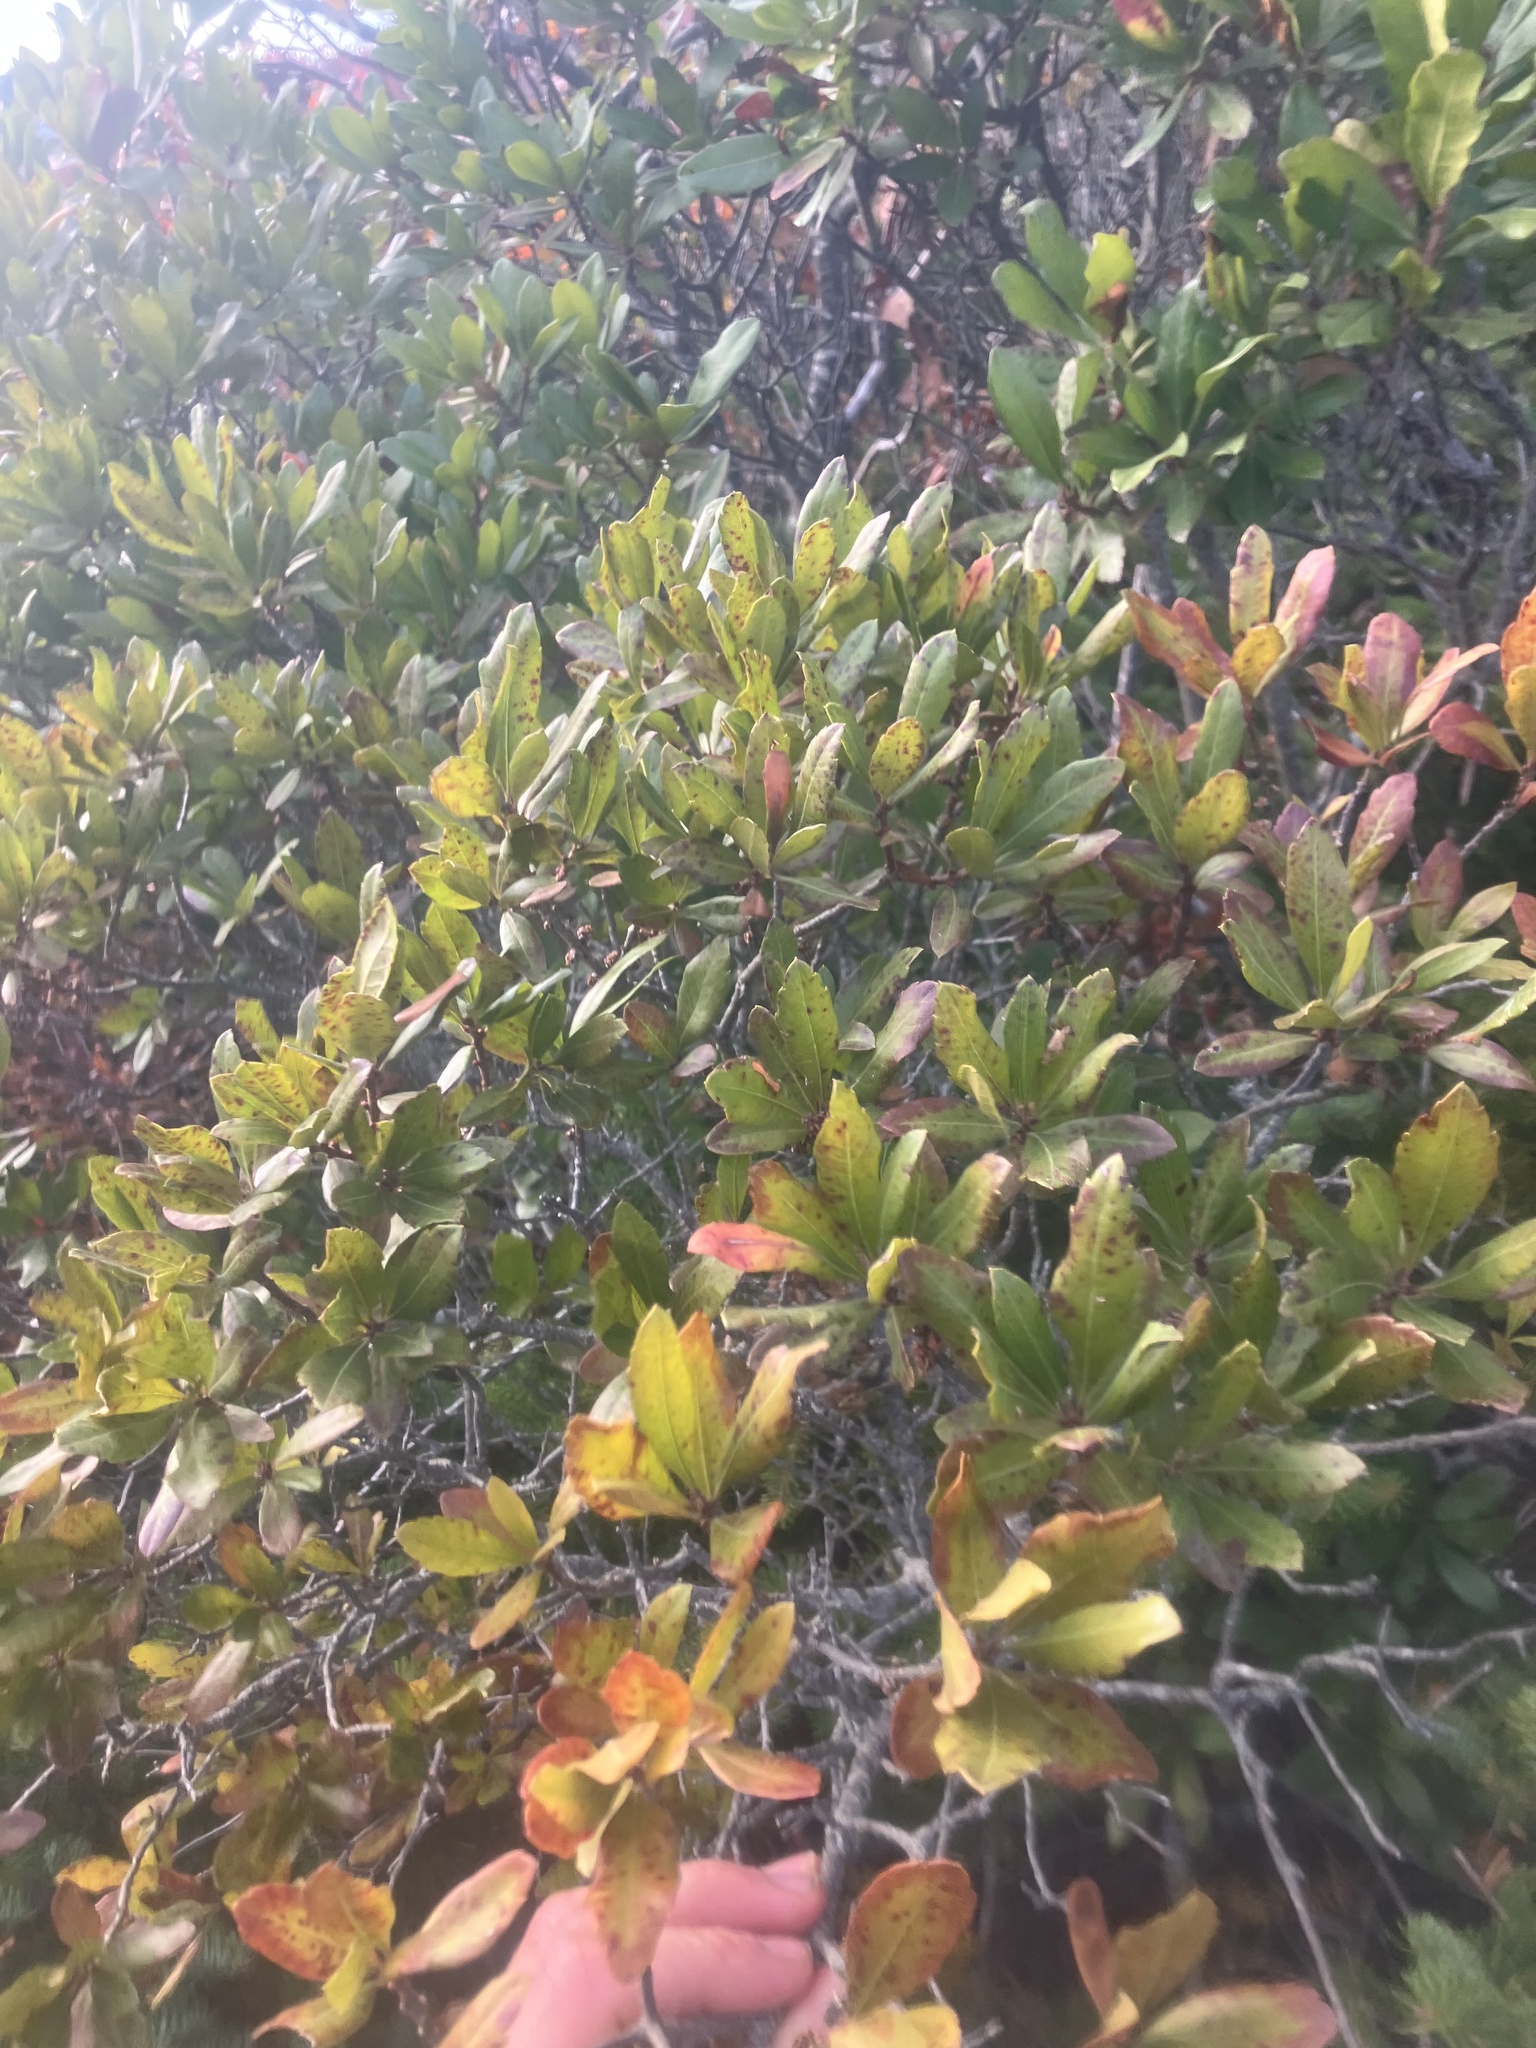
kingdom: Plantae
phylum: Tracheophyta
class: Magnoliopsida
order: Fagales
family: Myricaceae
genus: Morella
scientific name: Morella pensylvanica
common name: Northern bayberry
